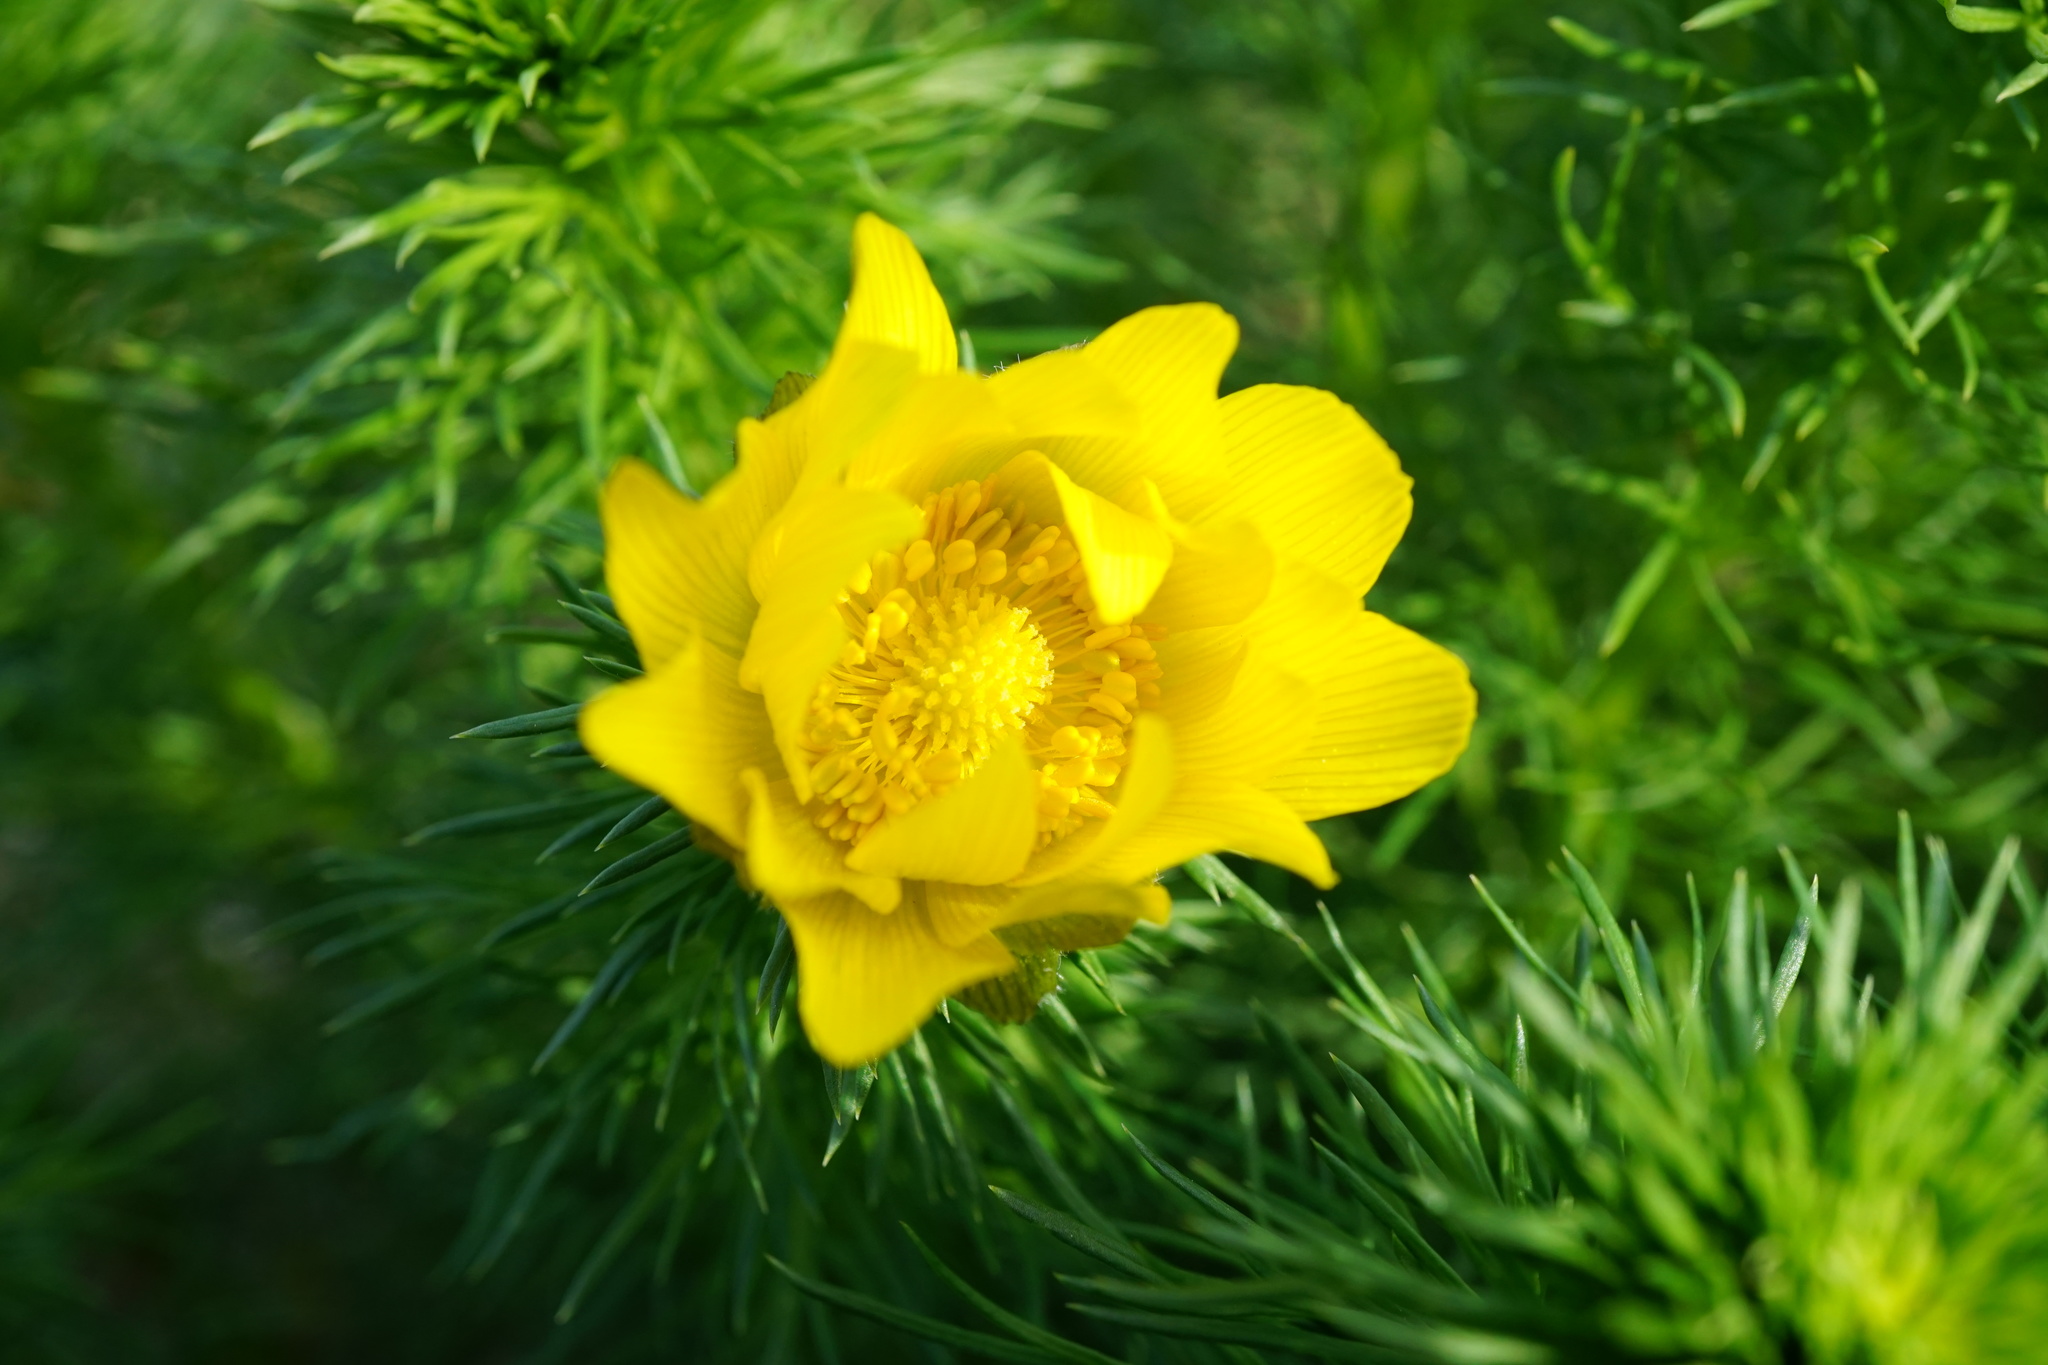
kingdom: Plantae
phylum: Tracheophyta
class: Magnoliopsida
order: Ranunculales
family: Ranunculaceae
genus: Adonis
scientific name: Adonis vernalis
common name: Yellow pheasants-eye
